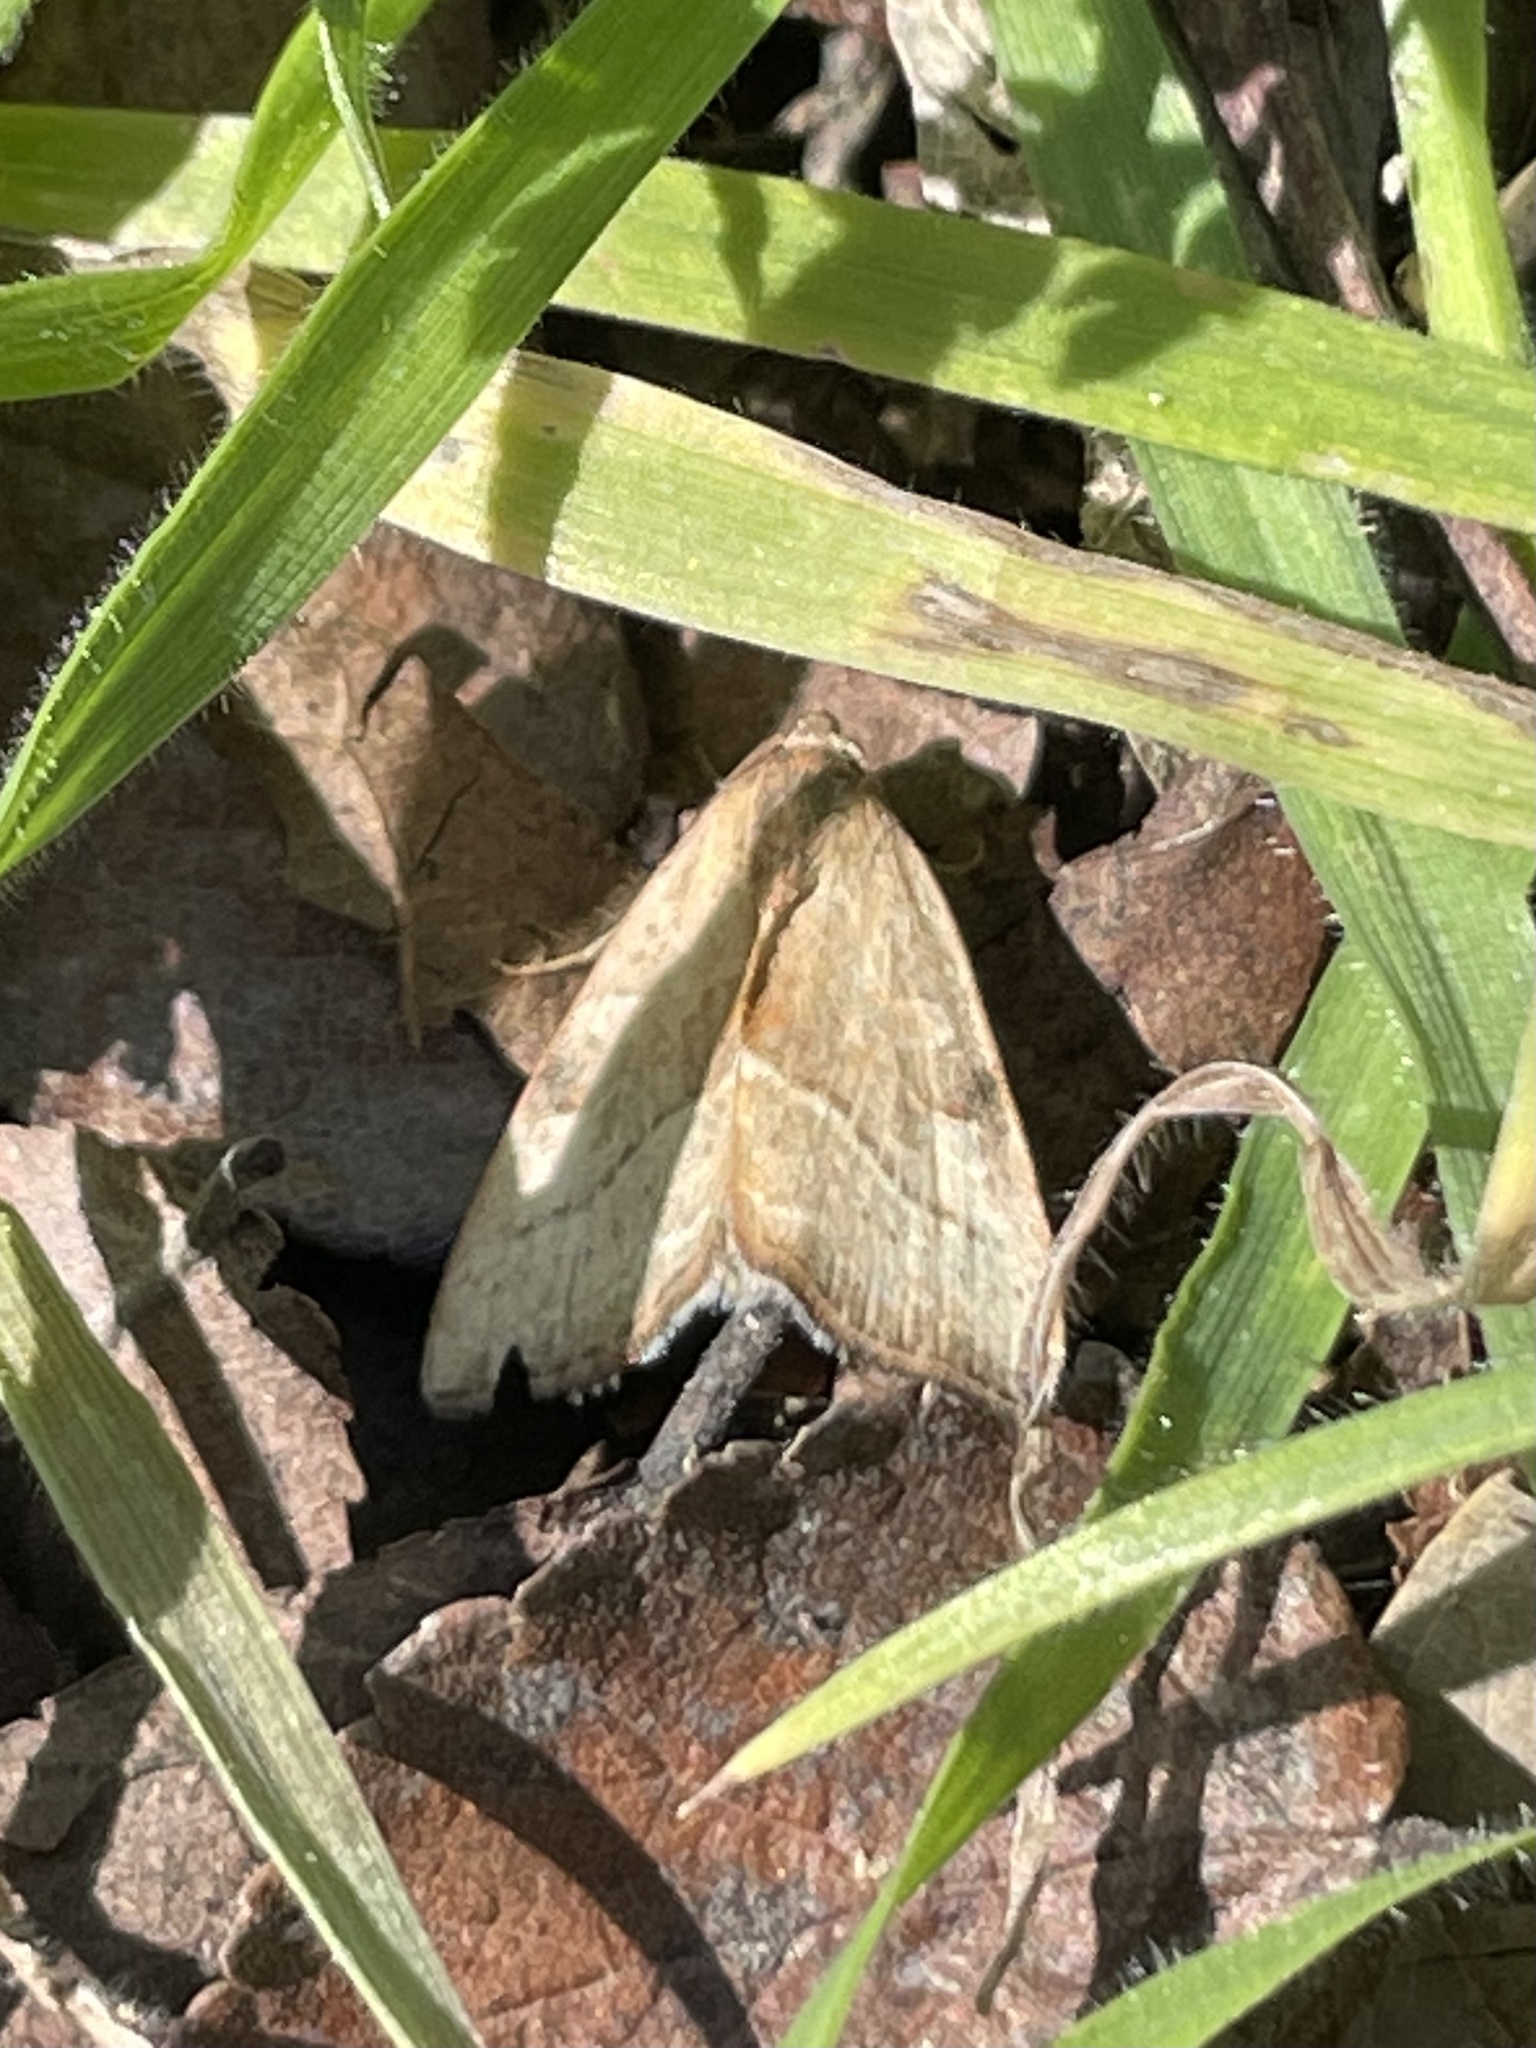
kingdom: Animalia
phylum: Arthropoda
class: Insecta
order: Lepidoptera
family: Noctuidae
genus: Galgula
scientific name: Galgula partita
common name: Wedgeling
